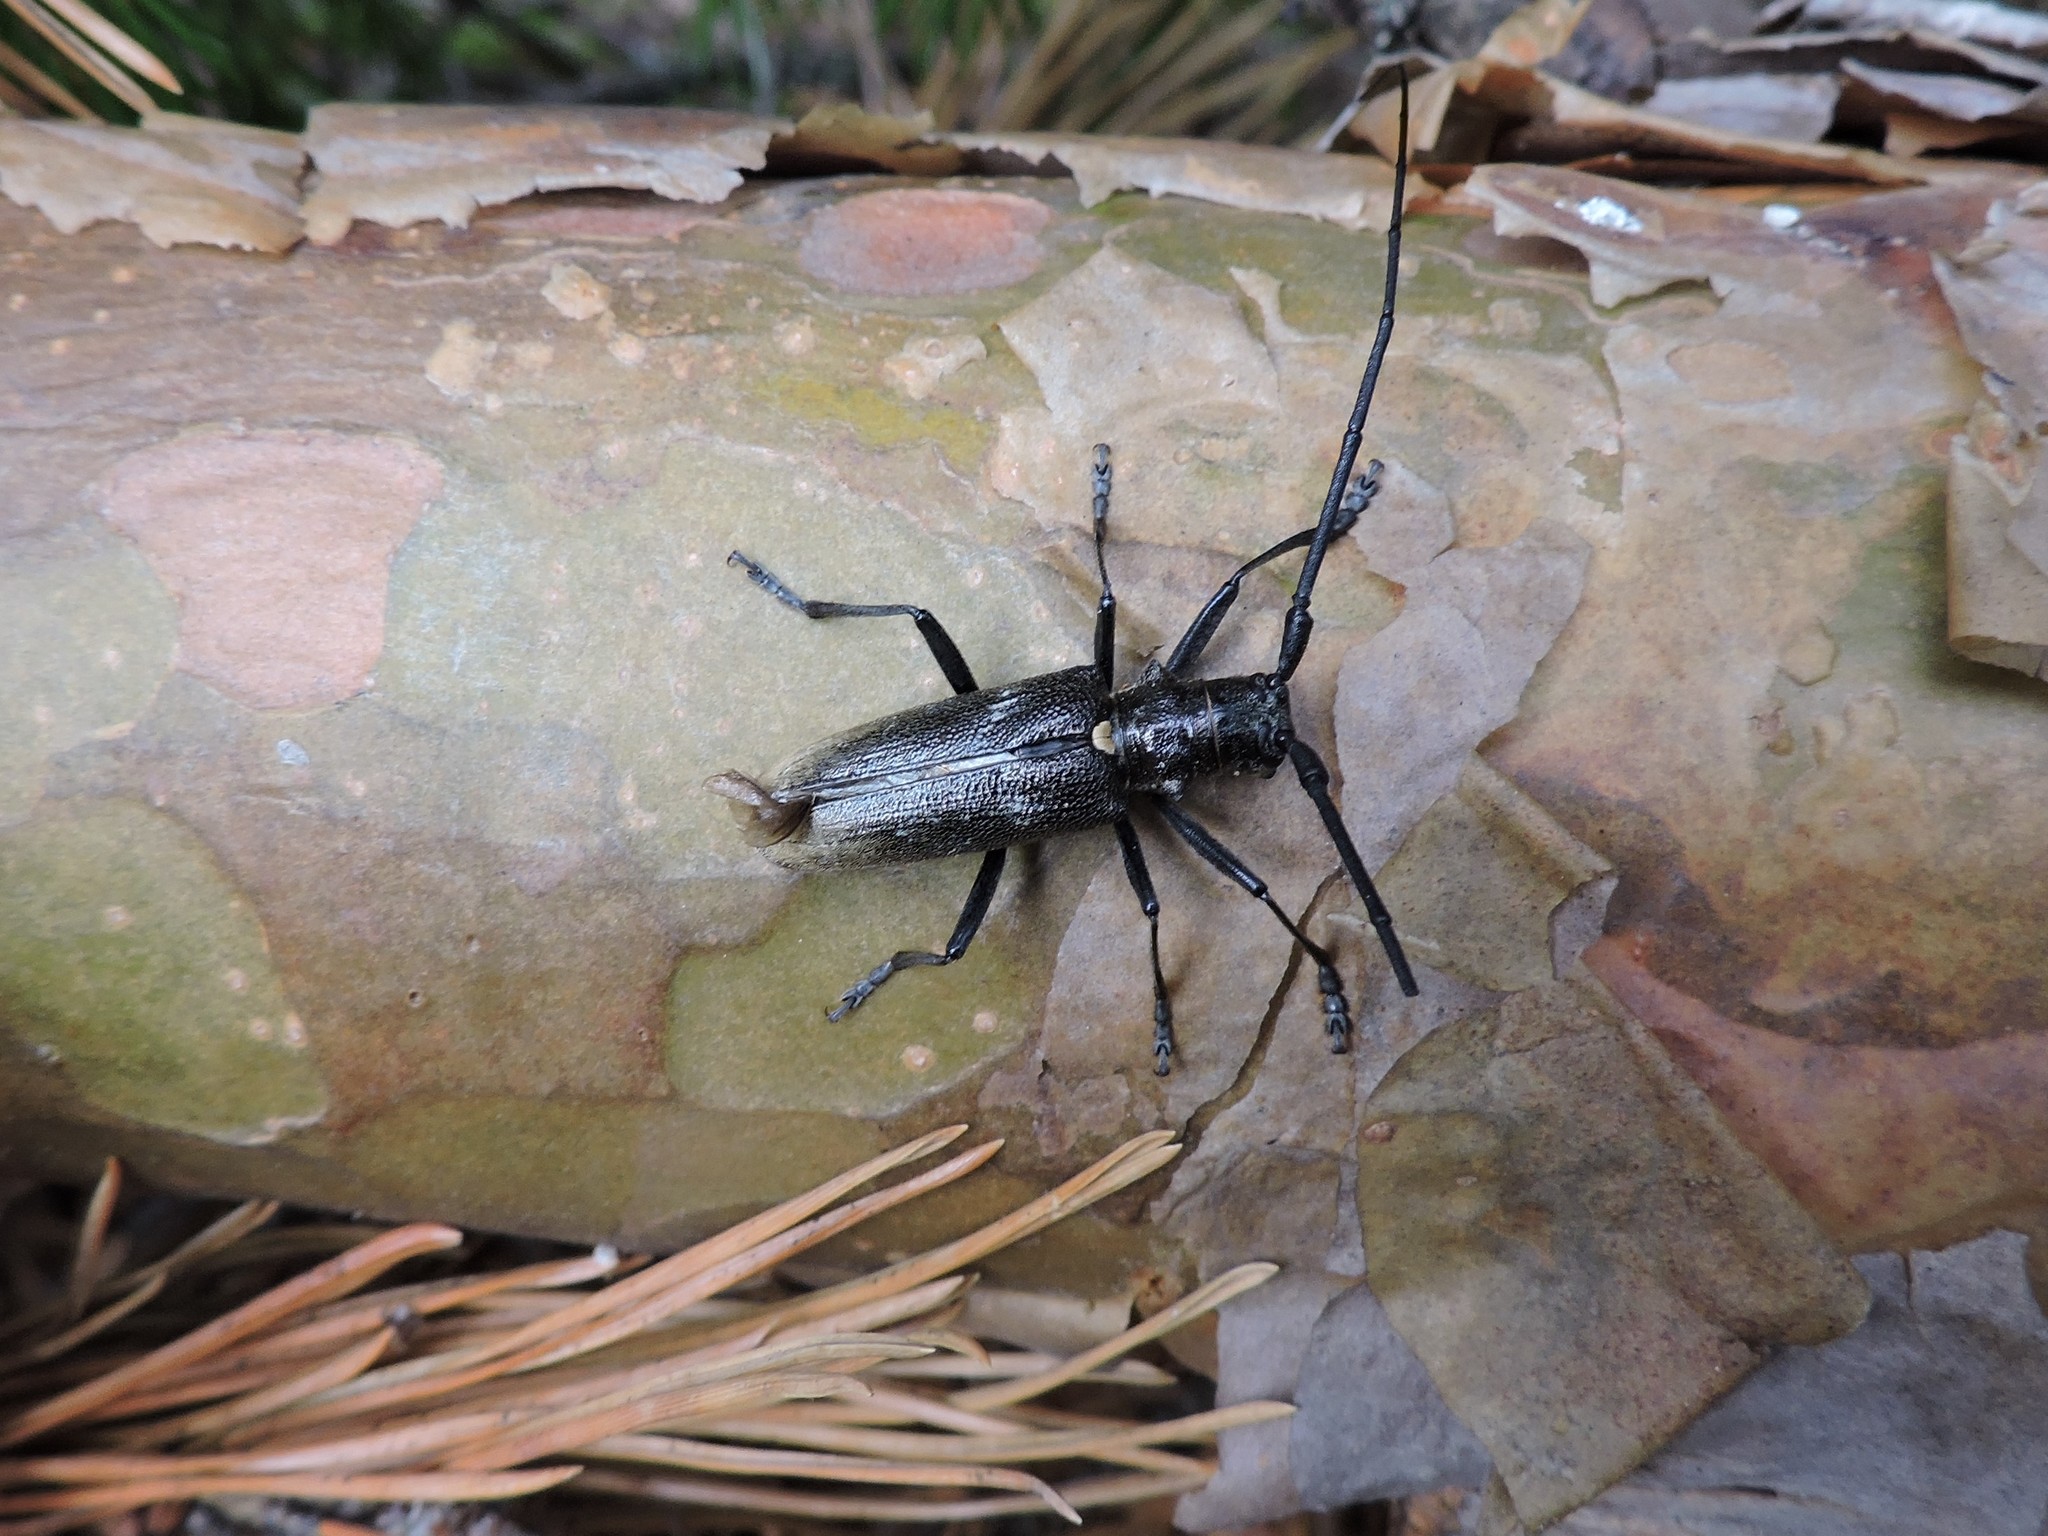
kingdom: Animalia
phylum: Arthropoda
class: Insecta
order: Coleoptera
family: Cerambycidae
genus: Monochamus
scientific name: Monochamus sartor
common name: Pine sawyer
